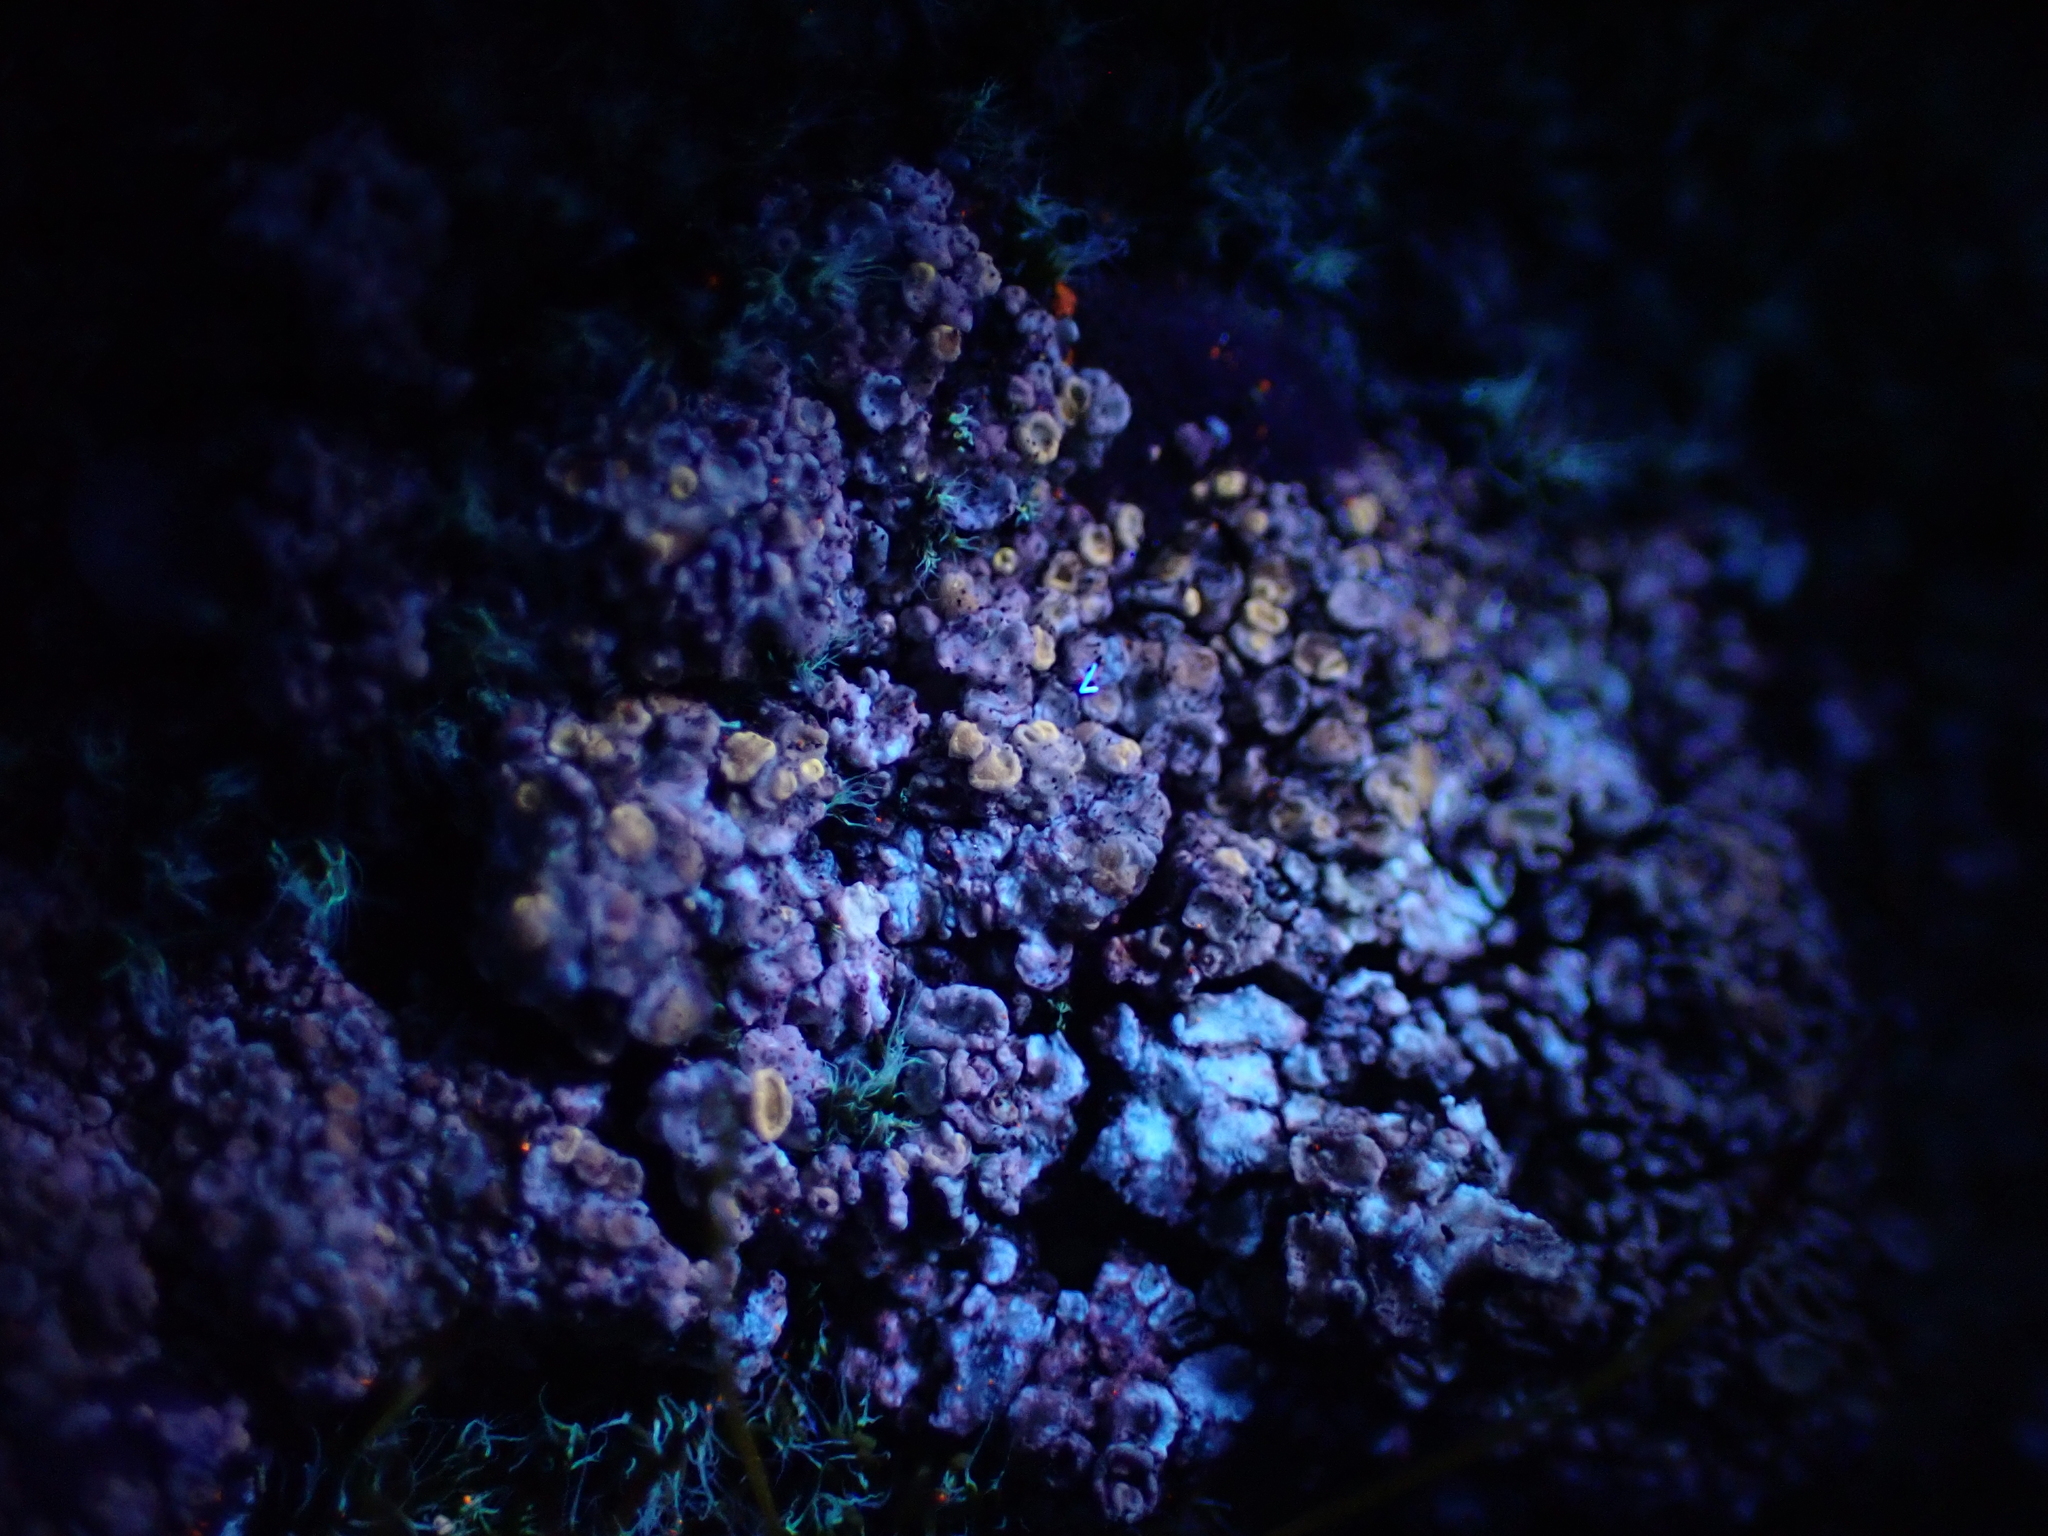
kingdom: Fungi
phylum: Ascomycota
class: Lecanoromycetes
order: Lecanorales
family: Lecanoraceae
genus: Polyozosia
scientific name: Polyozosia albescens
